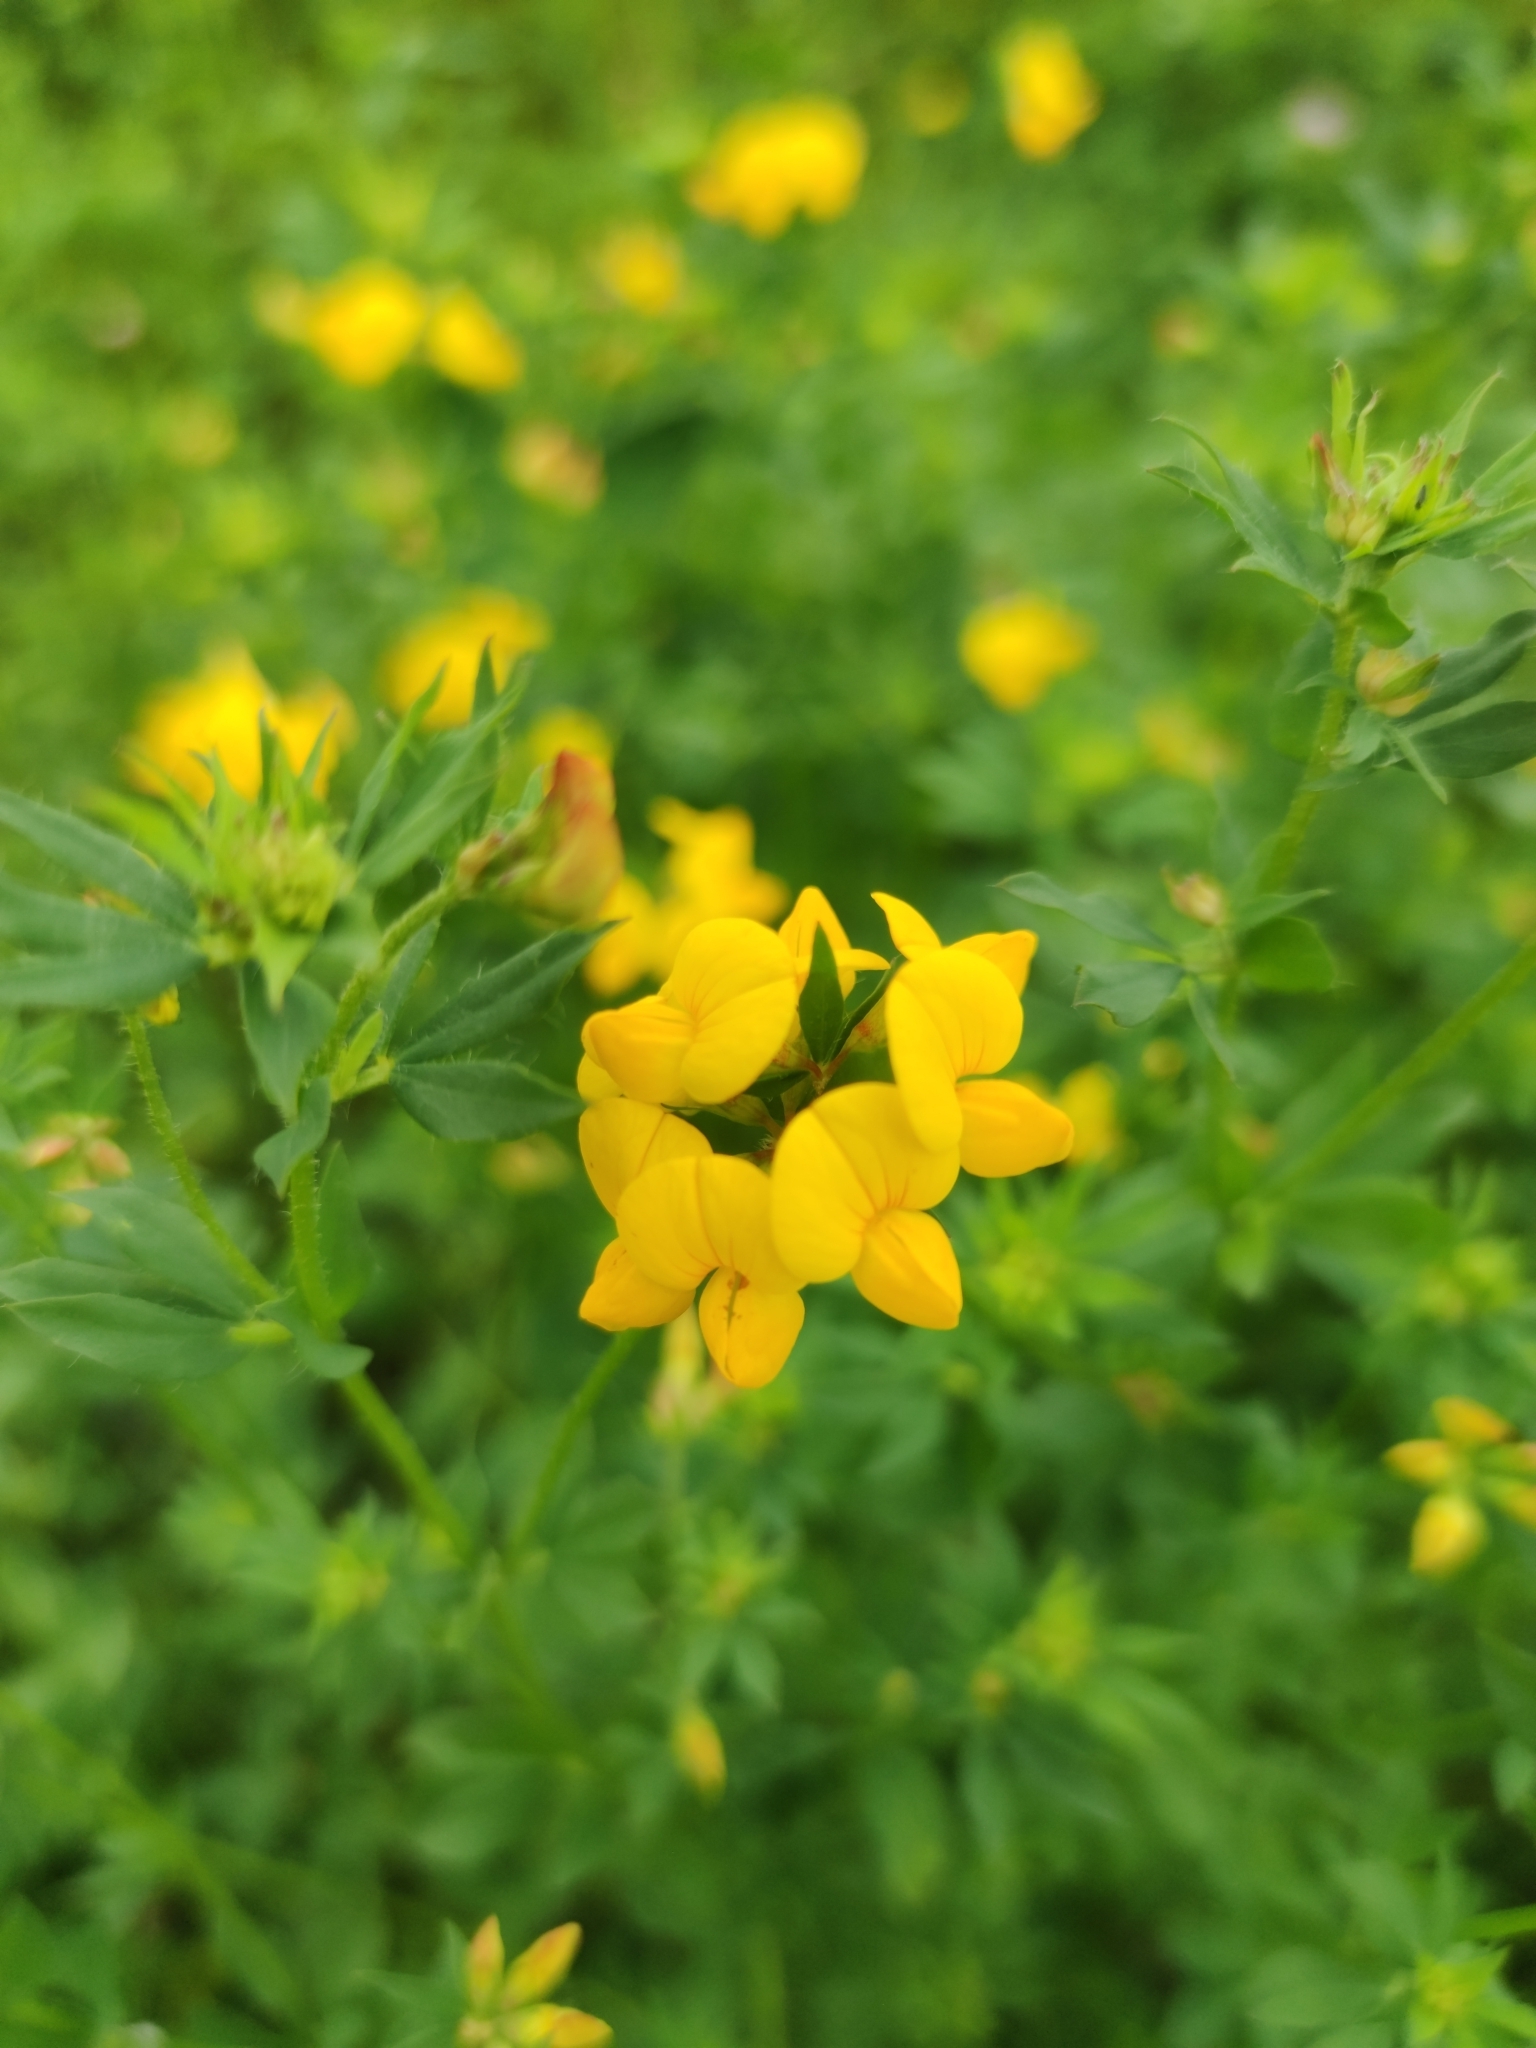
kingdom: Plantae
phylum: Tracheophyta
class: Magnoliopsida
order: Fabales
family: Fabaceae
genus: Lotus
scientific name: Lotus corniculatus
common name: Common bird's-foot-trefoil
